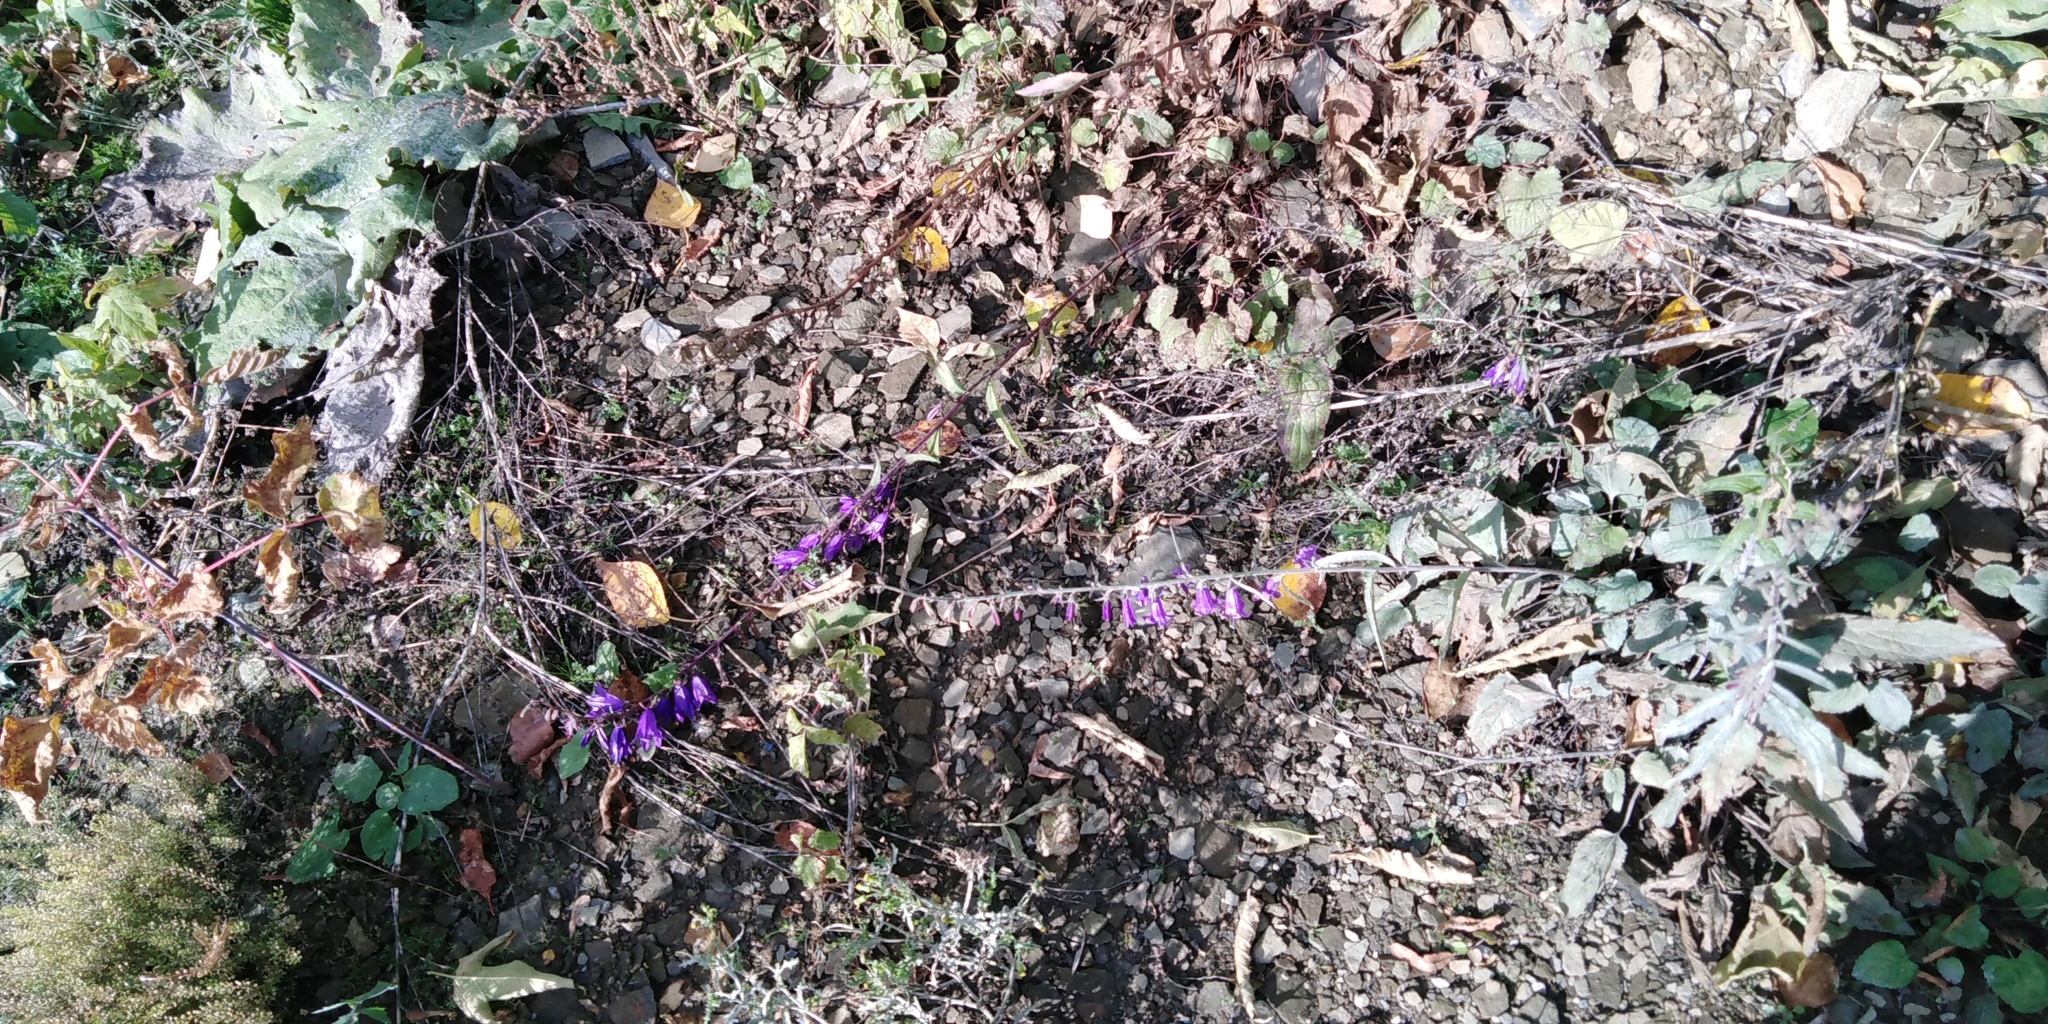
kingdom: Plantae
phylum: Tracheophyta
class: Magnoliopsida
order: Asterales
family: Campanulaceae
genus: Campanula
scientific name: Campanula rapunculoides
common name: Creeping bellflower
